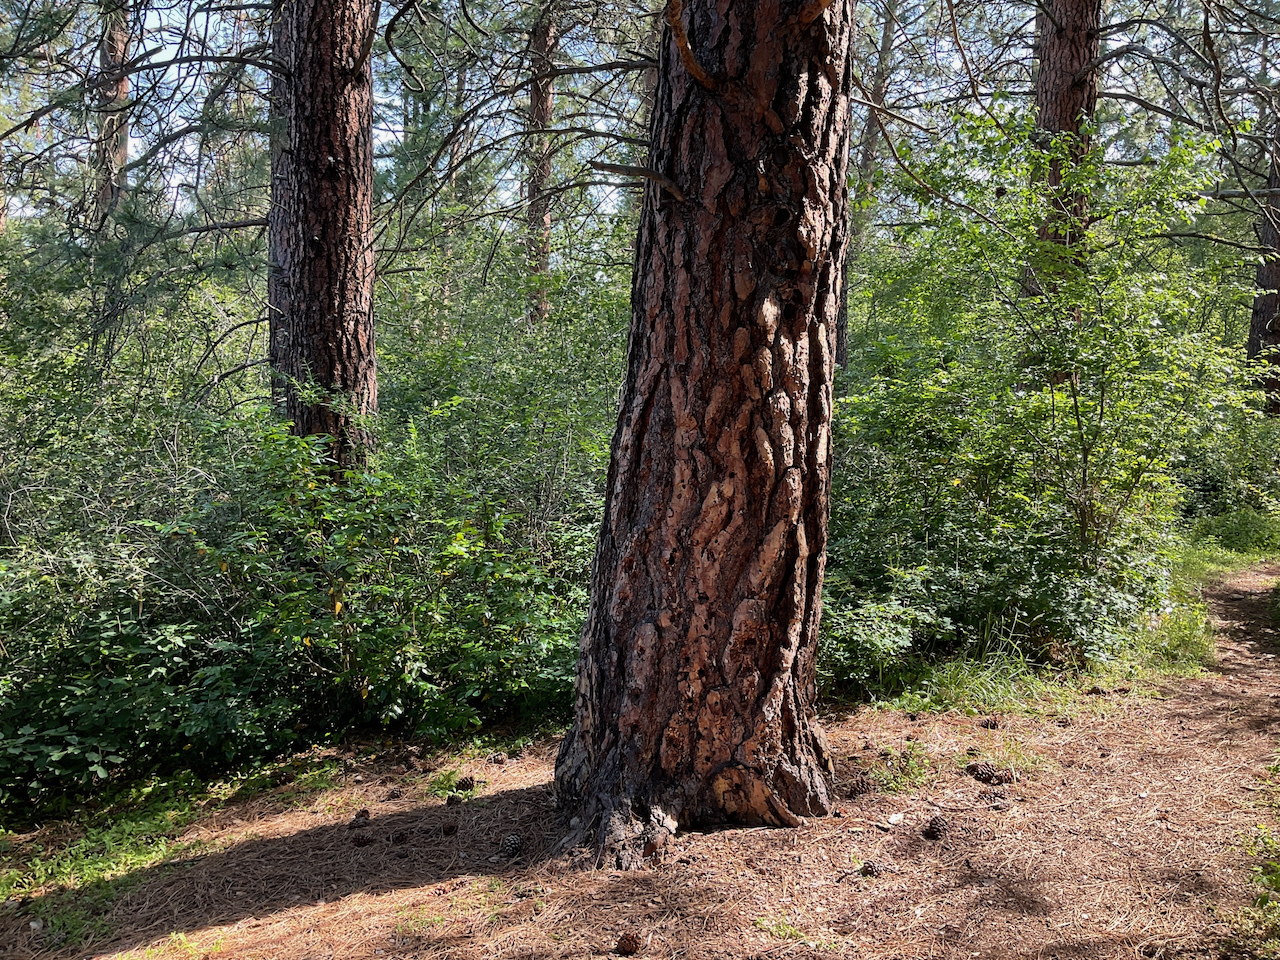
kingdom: Plantae
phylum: Tracheophyta
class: Pinopsida
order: Pinales
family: Pinaceae
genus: Pinus
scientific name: Pinus ponderosa
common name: Western yellow-pine
